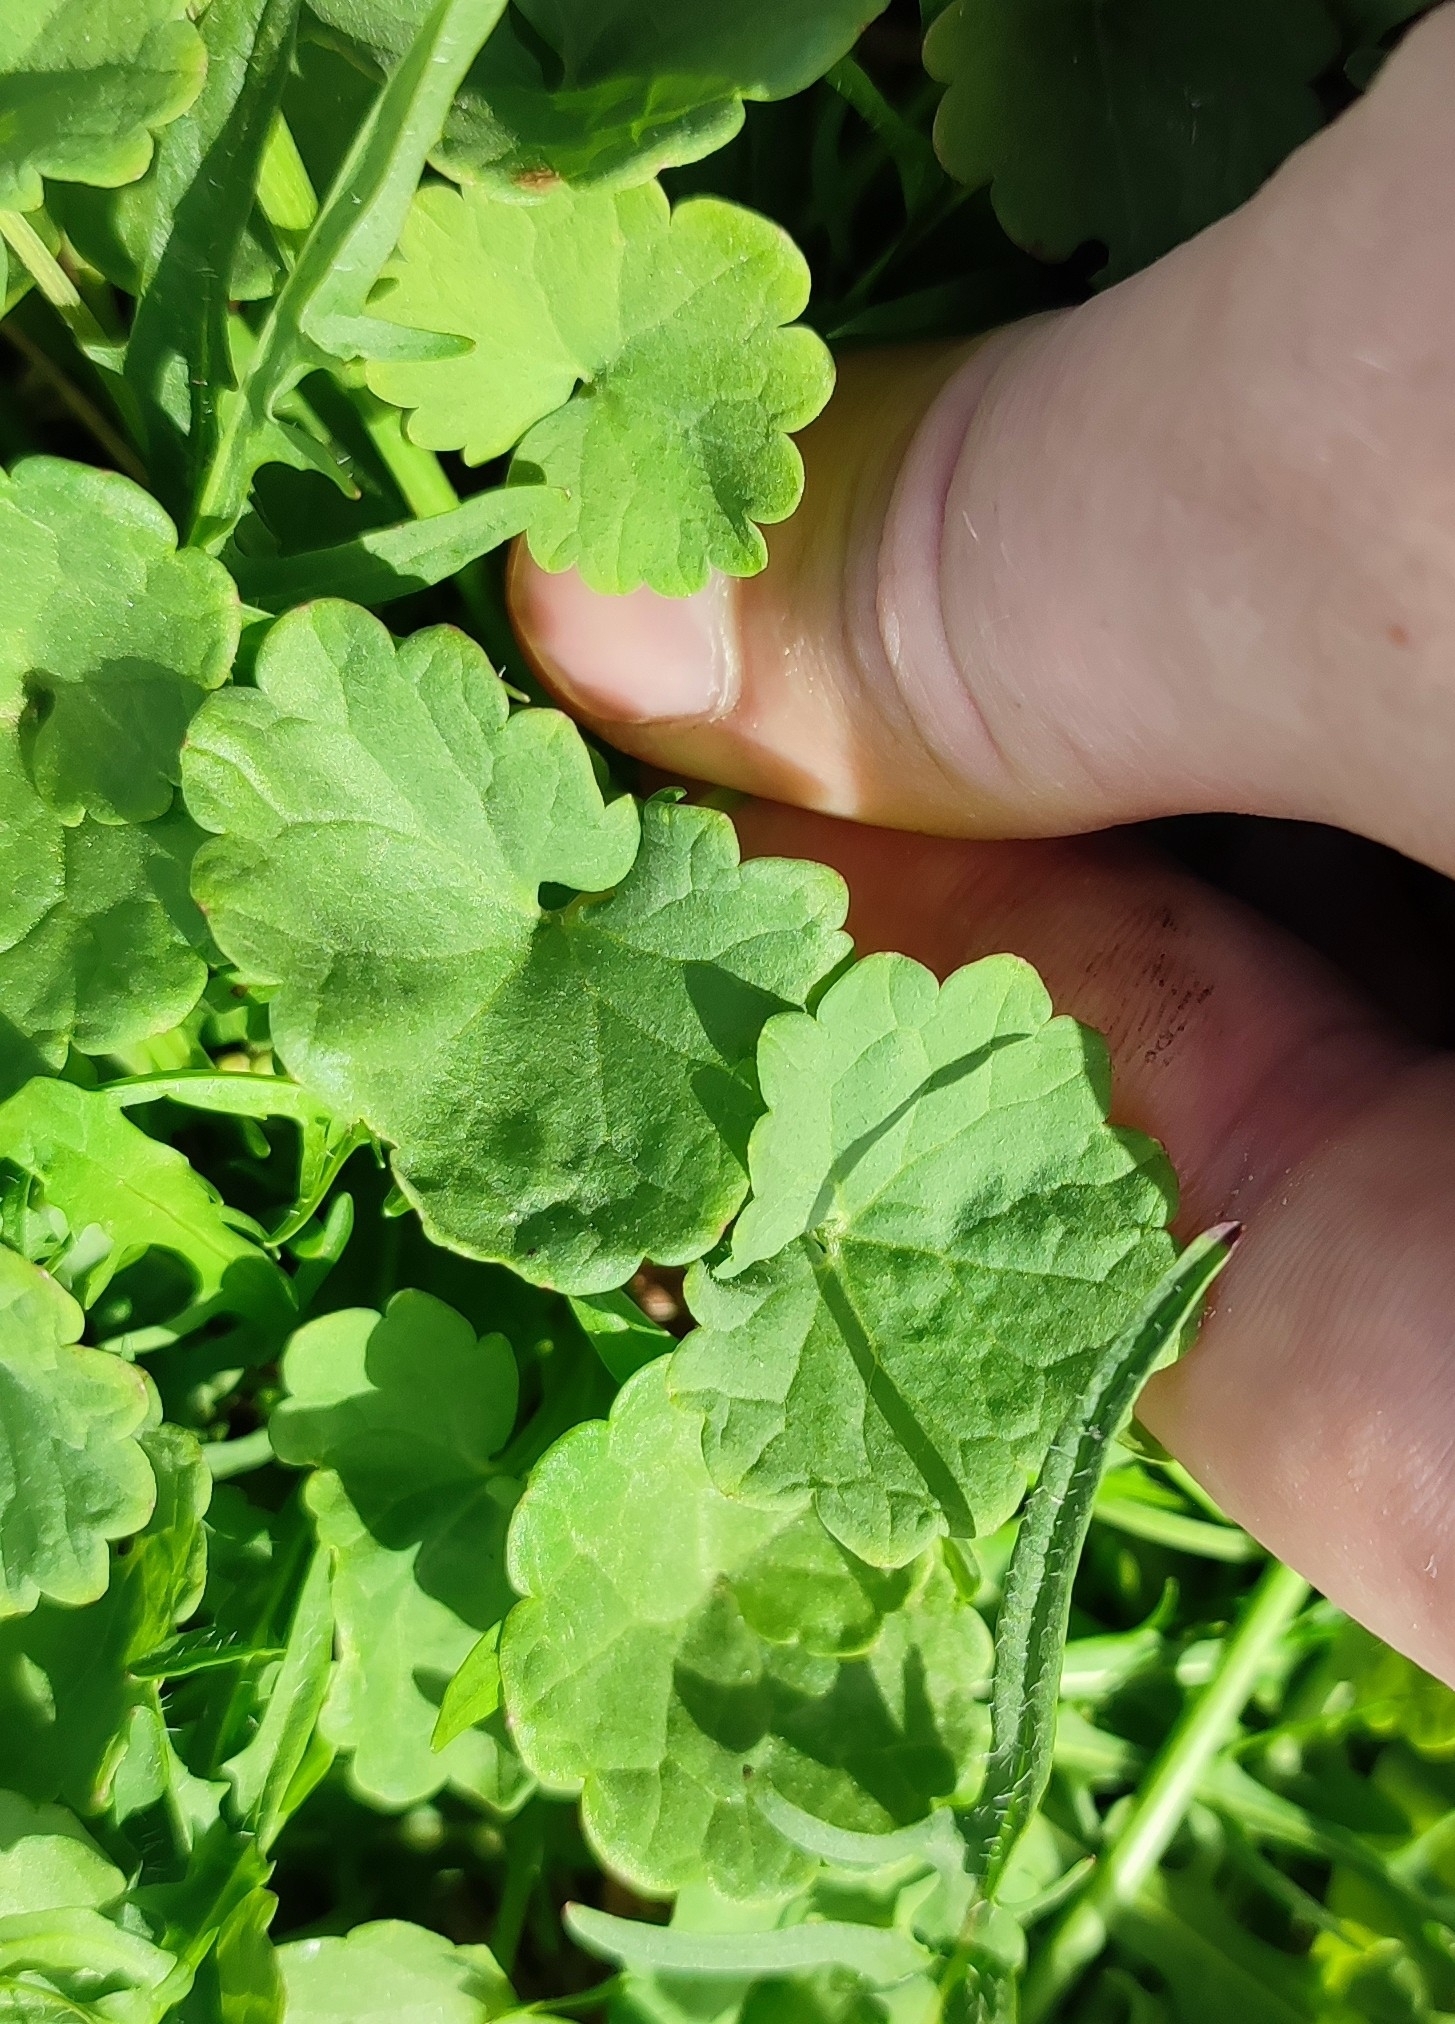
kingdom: Plantae
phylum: Tracheophyta
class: Magnoliopsida
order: Lamiales
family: Lamiaceae
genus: Glechoma
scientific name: Glechoma hederacea
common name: Ground ivy
